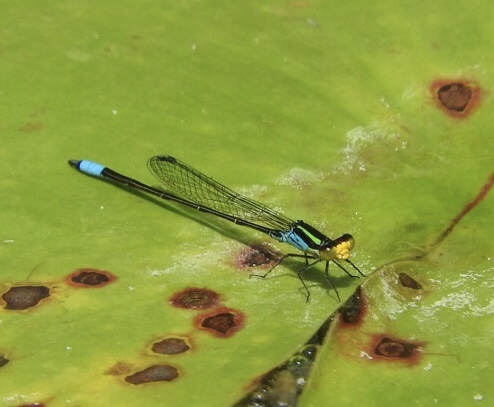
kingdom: Animalia
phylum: Arthropoda
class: Insecta
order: Odonata
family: Coenagrionidae
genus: Neoerythromma
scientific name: Neoerythromma cultellatum
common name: Caribbean yellowface
